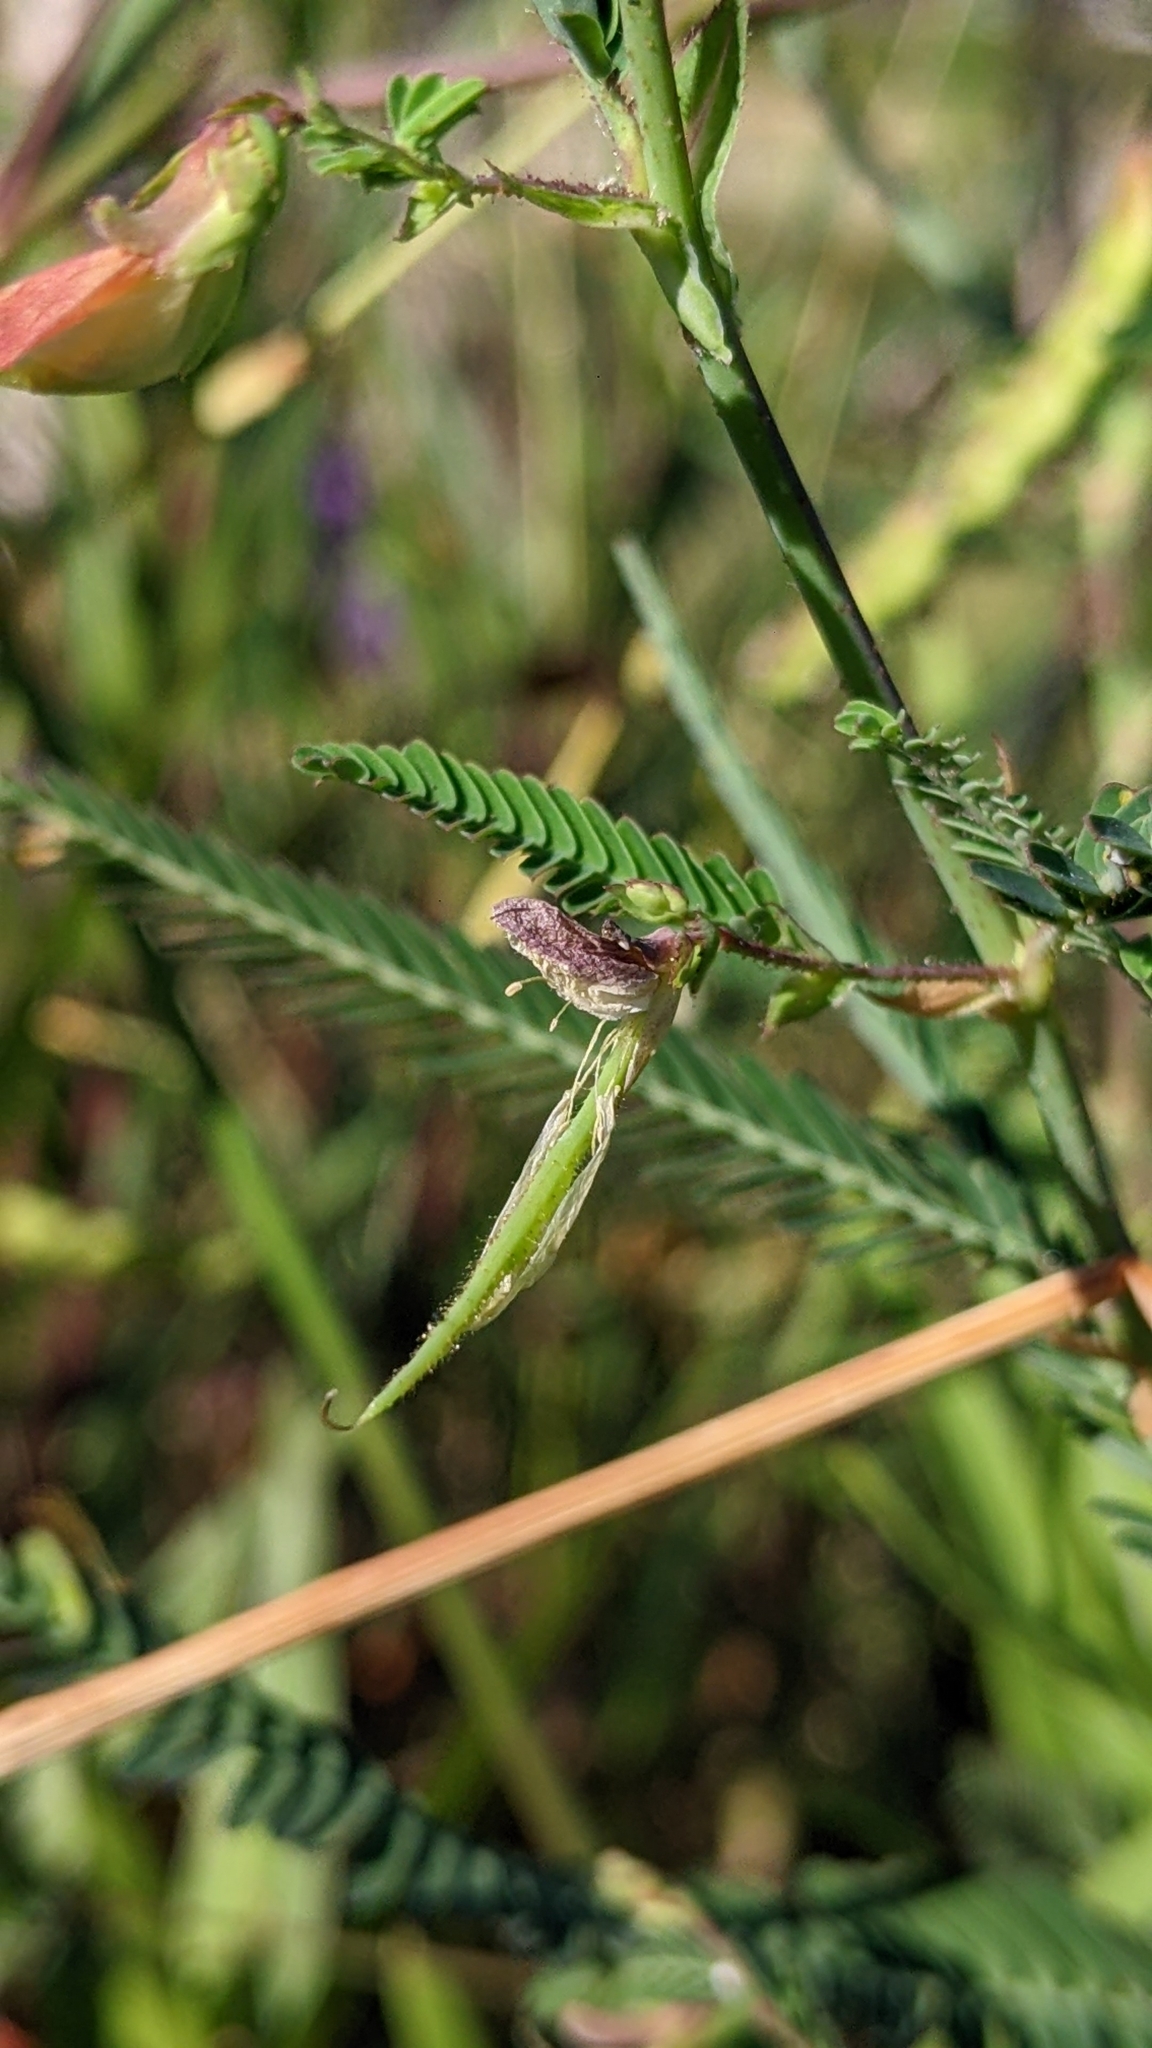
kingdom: Plantae
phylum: Tracheophyta
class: Magnoliopsida
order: Fabales
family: Fabaceae
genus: Aeschynomene
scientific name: Aeschynomene indica
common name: Indian jointvetch
